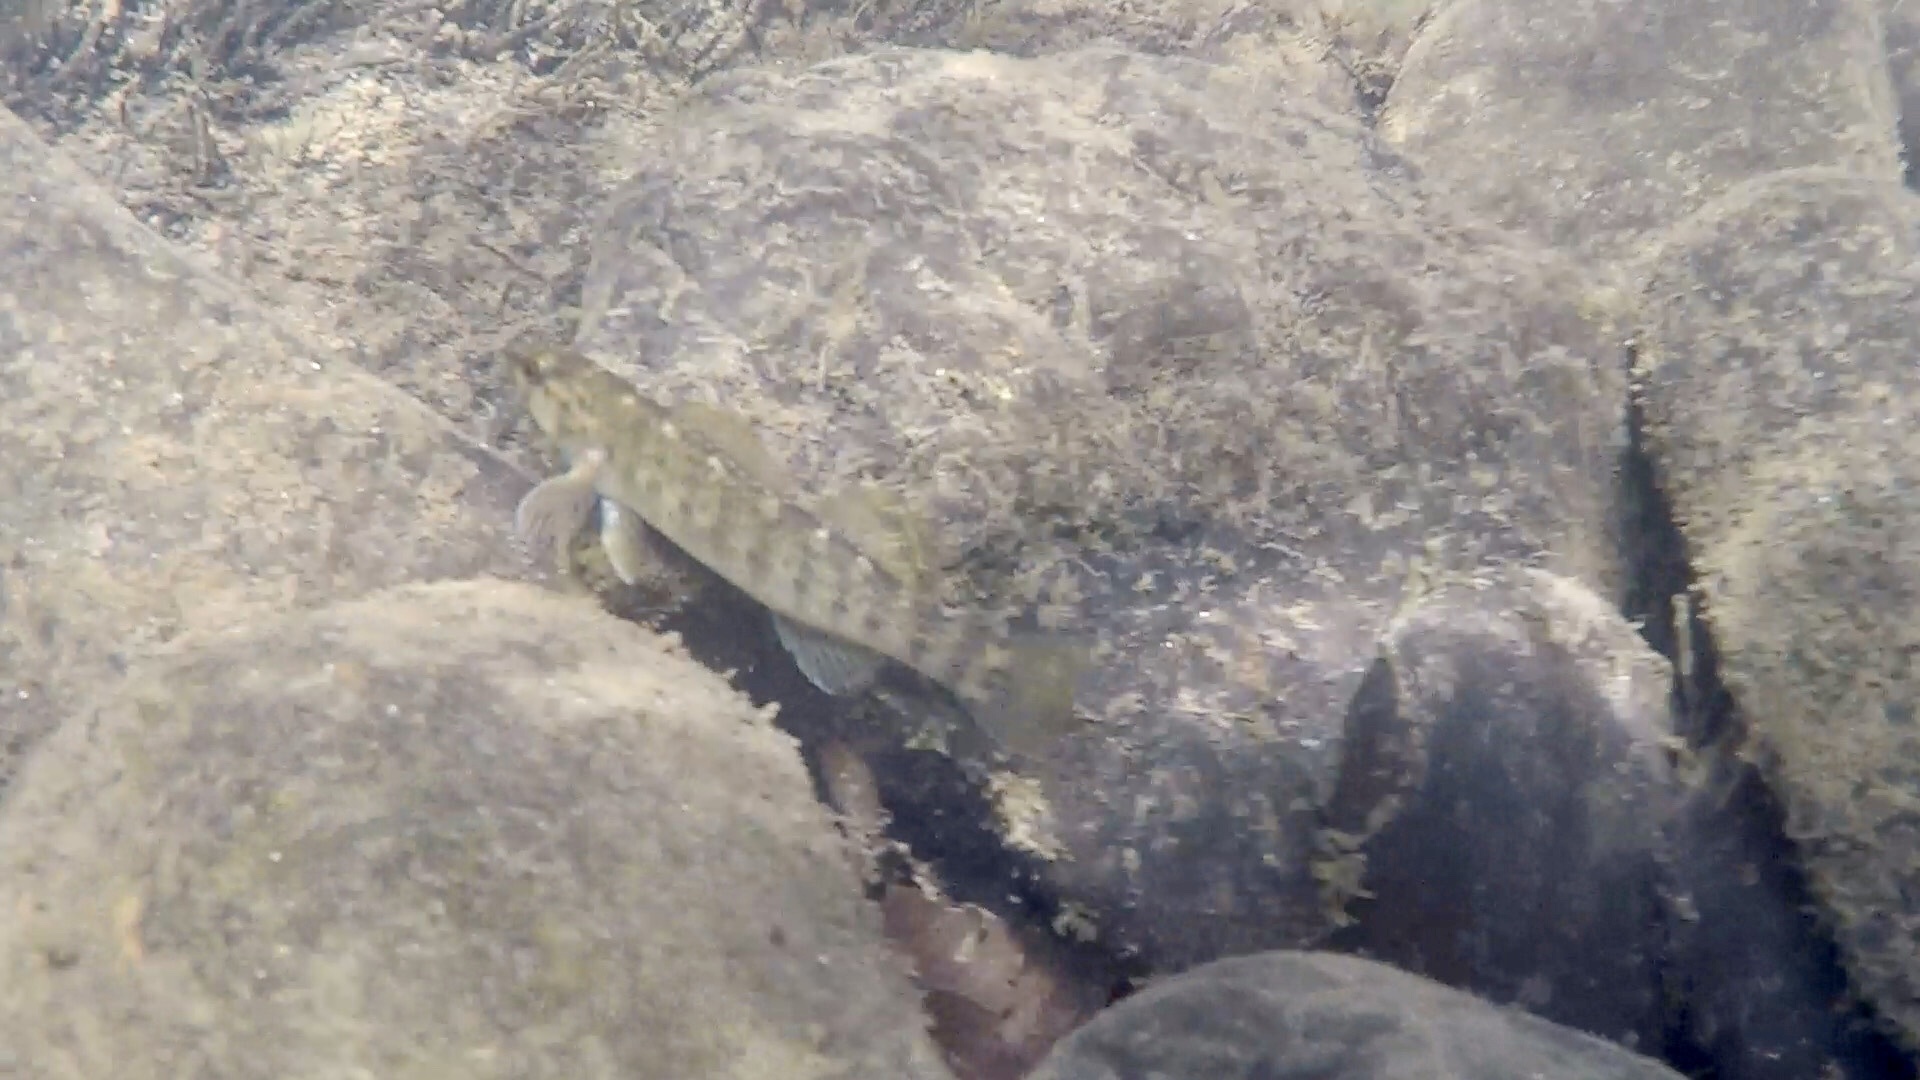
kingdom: Animalia
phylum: Chordata
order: Perciformes
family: Percidae
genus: Etheostoma
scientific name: Etheostoma chlorobranchium
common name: Greenfin darter
